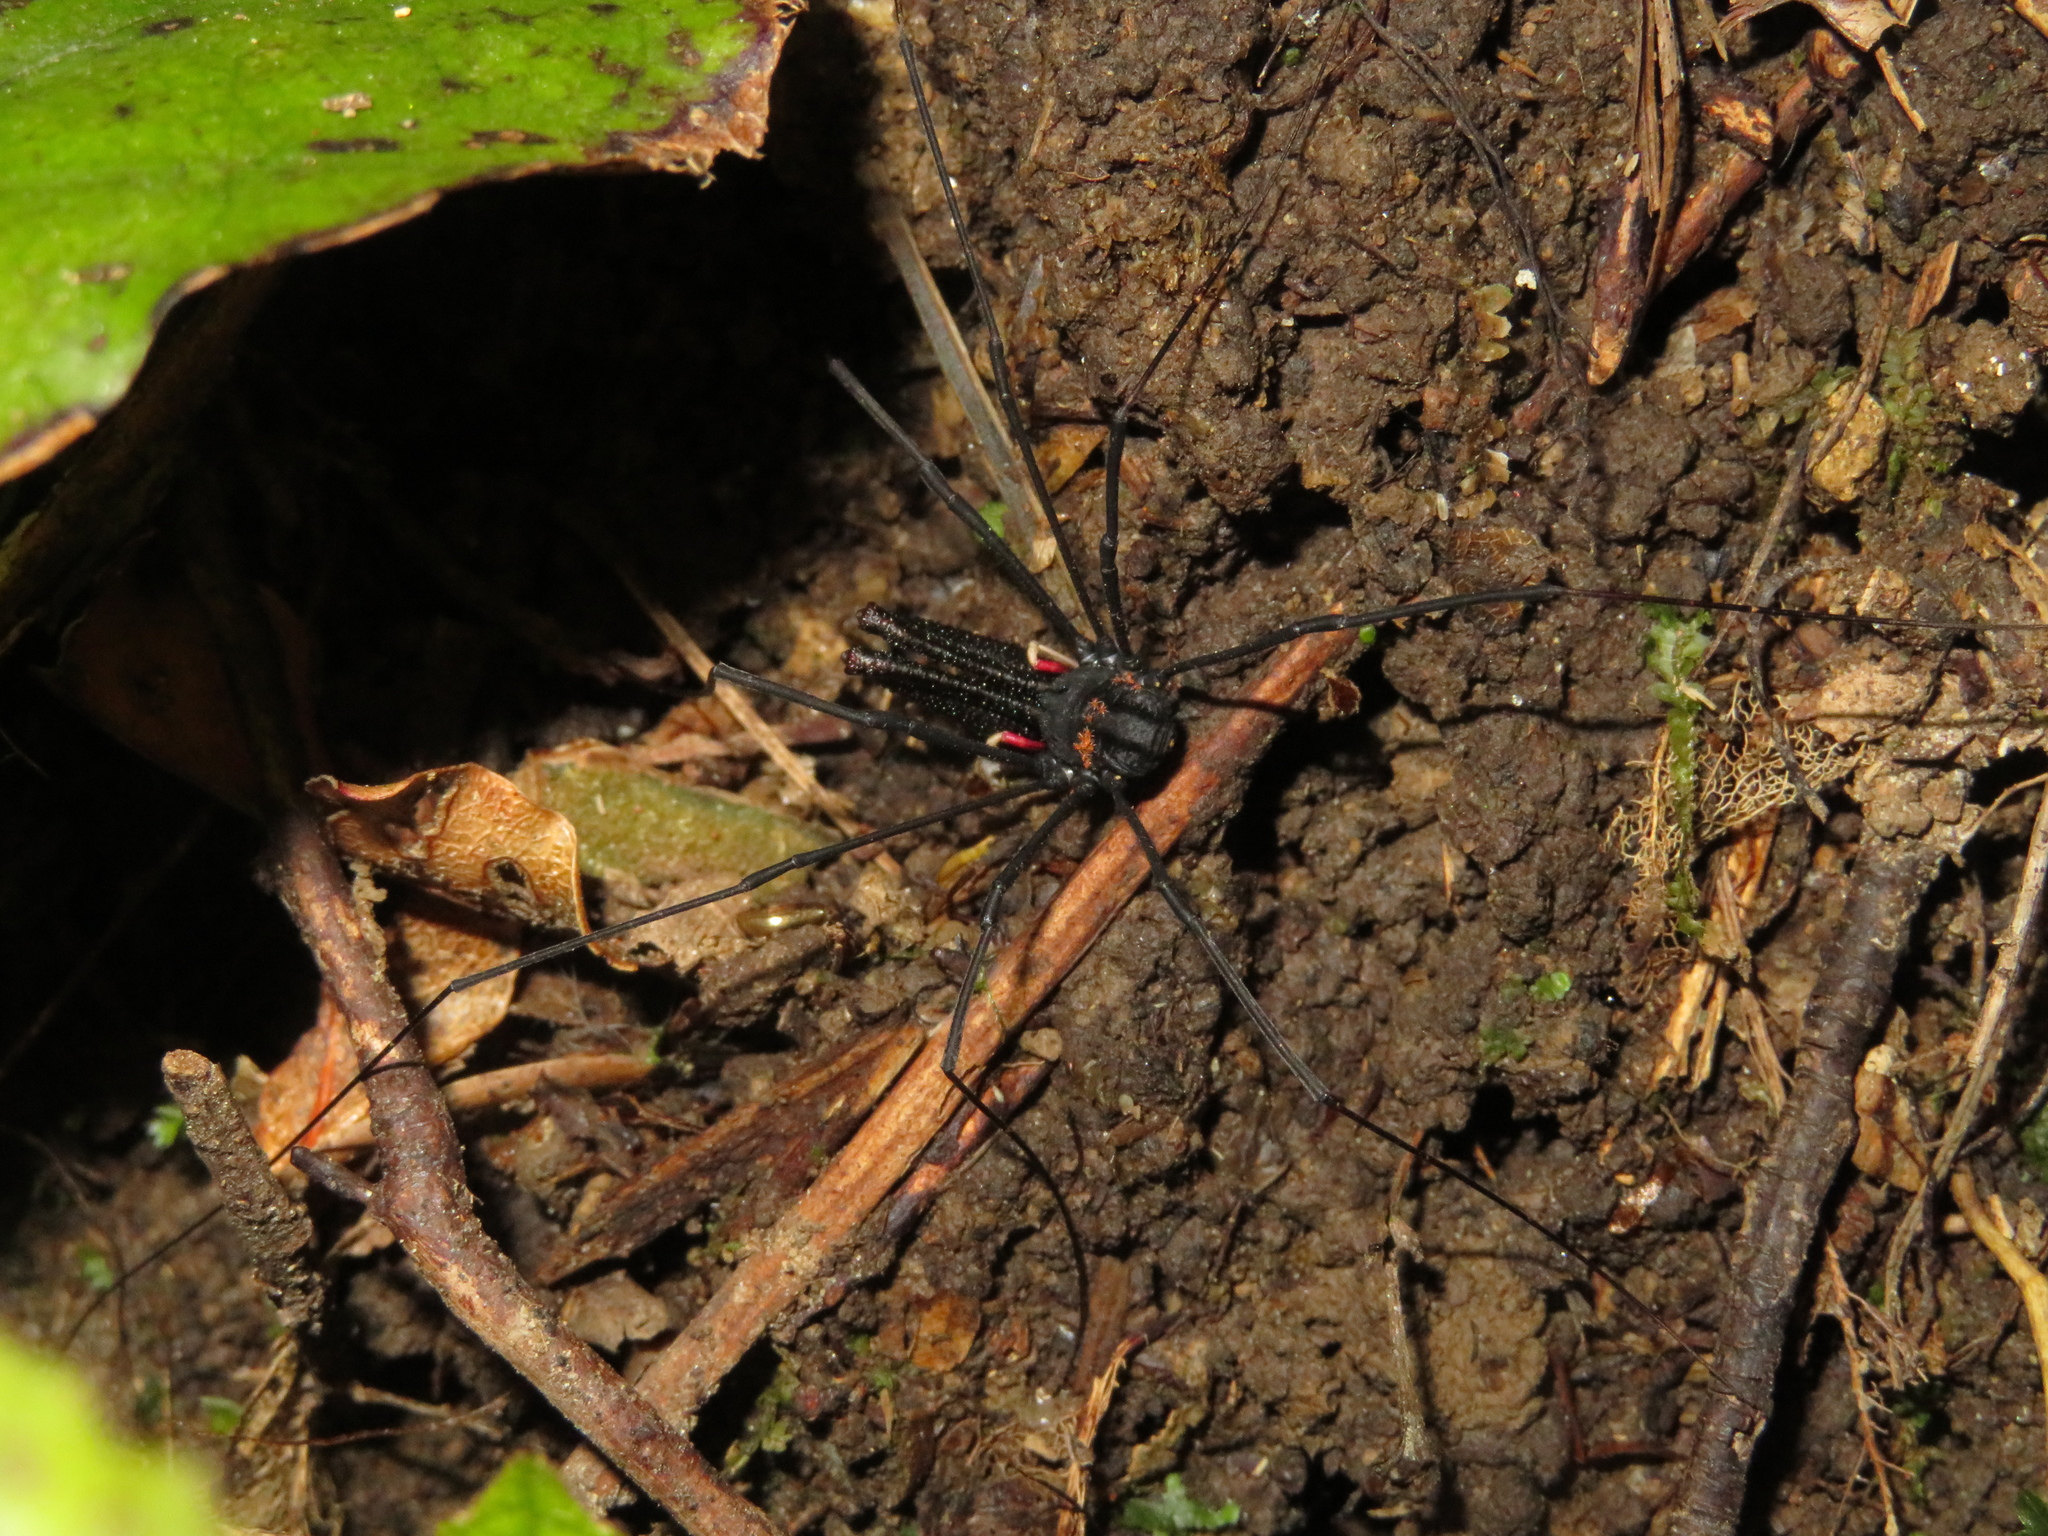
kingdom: Animalia
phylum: Arthropoda
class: Arachnida
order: Opiliones
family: Neopilionidae
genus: Forsteropsalis
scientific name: Forsteropsalis inconstans
